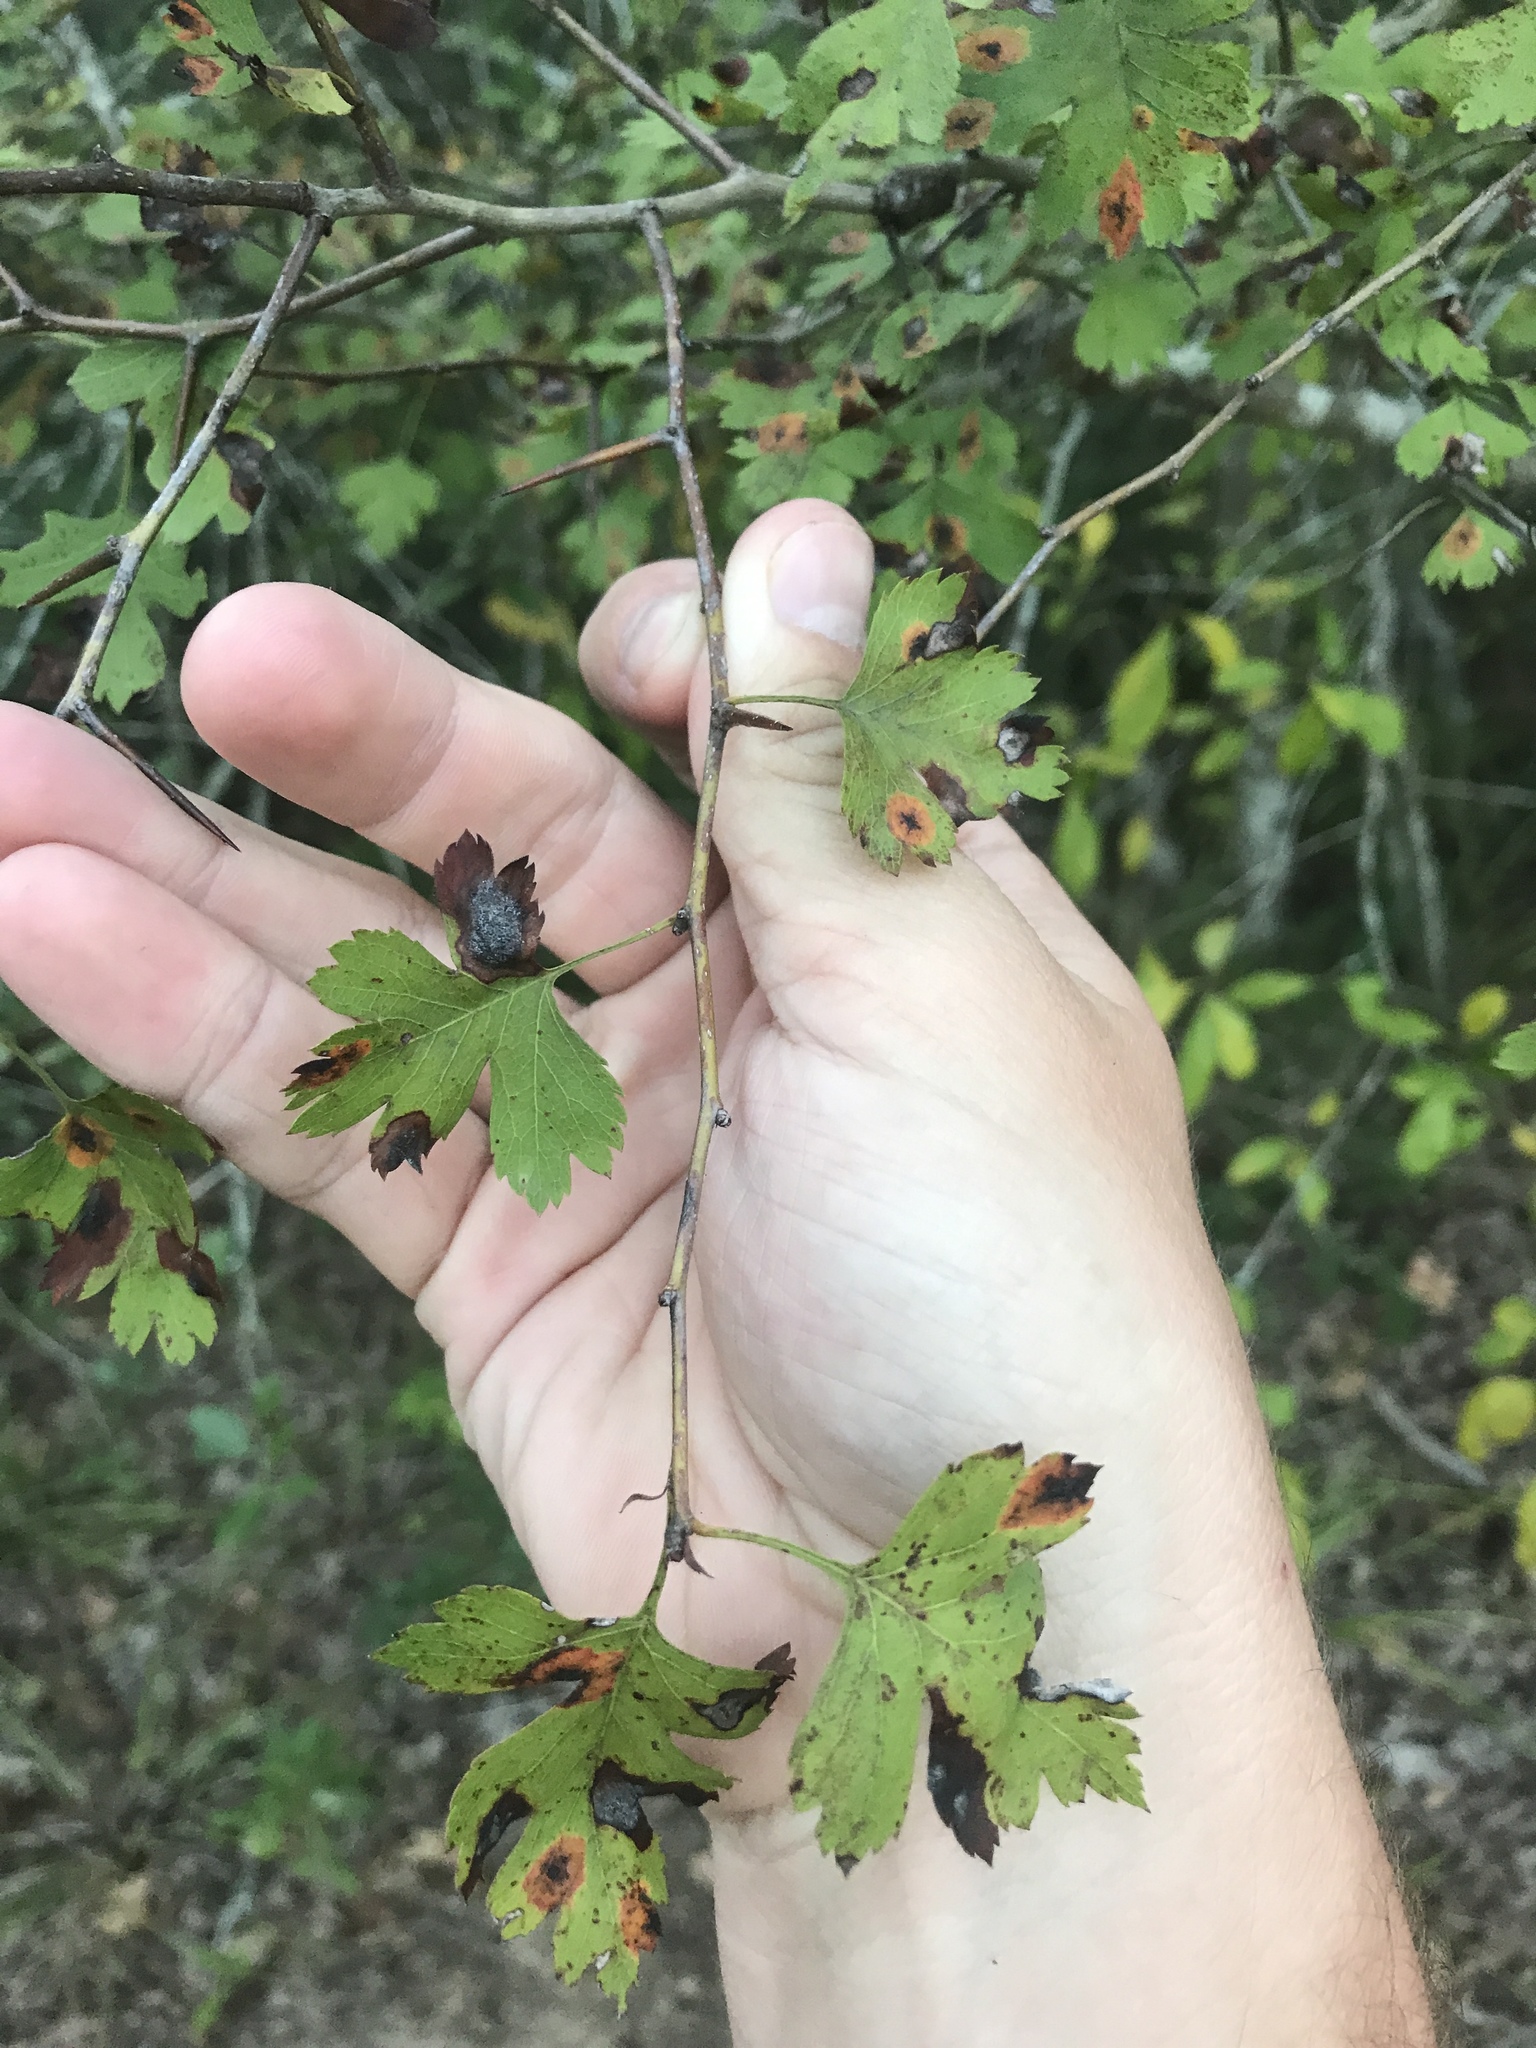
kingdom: Plantae
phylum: Tracheophyta
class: Magnoliopsida
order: Rosales
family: Rosaceae
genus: Crataegus
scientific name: Crataegus marshallii
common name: Parsley-hawthorn
